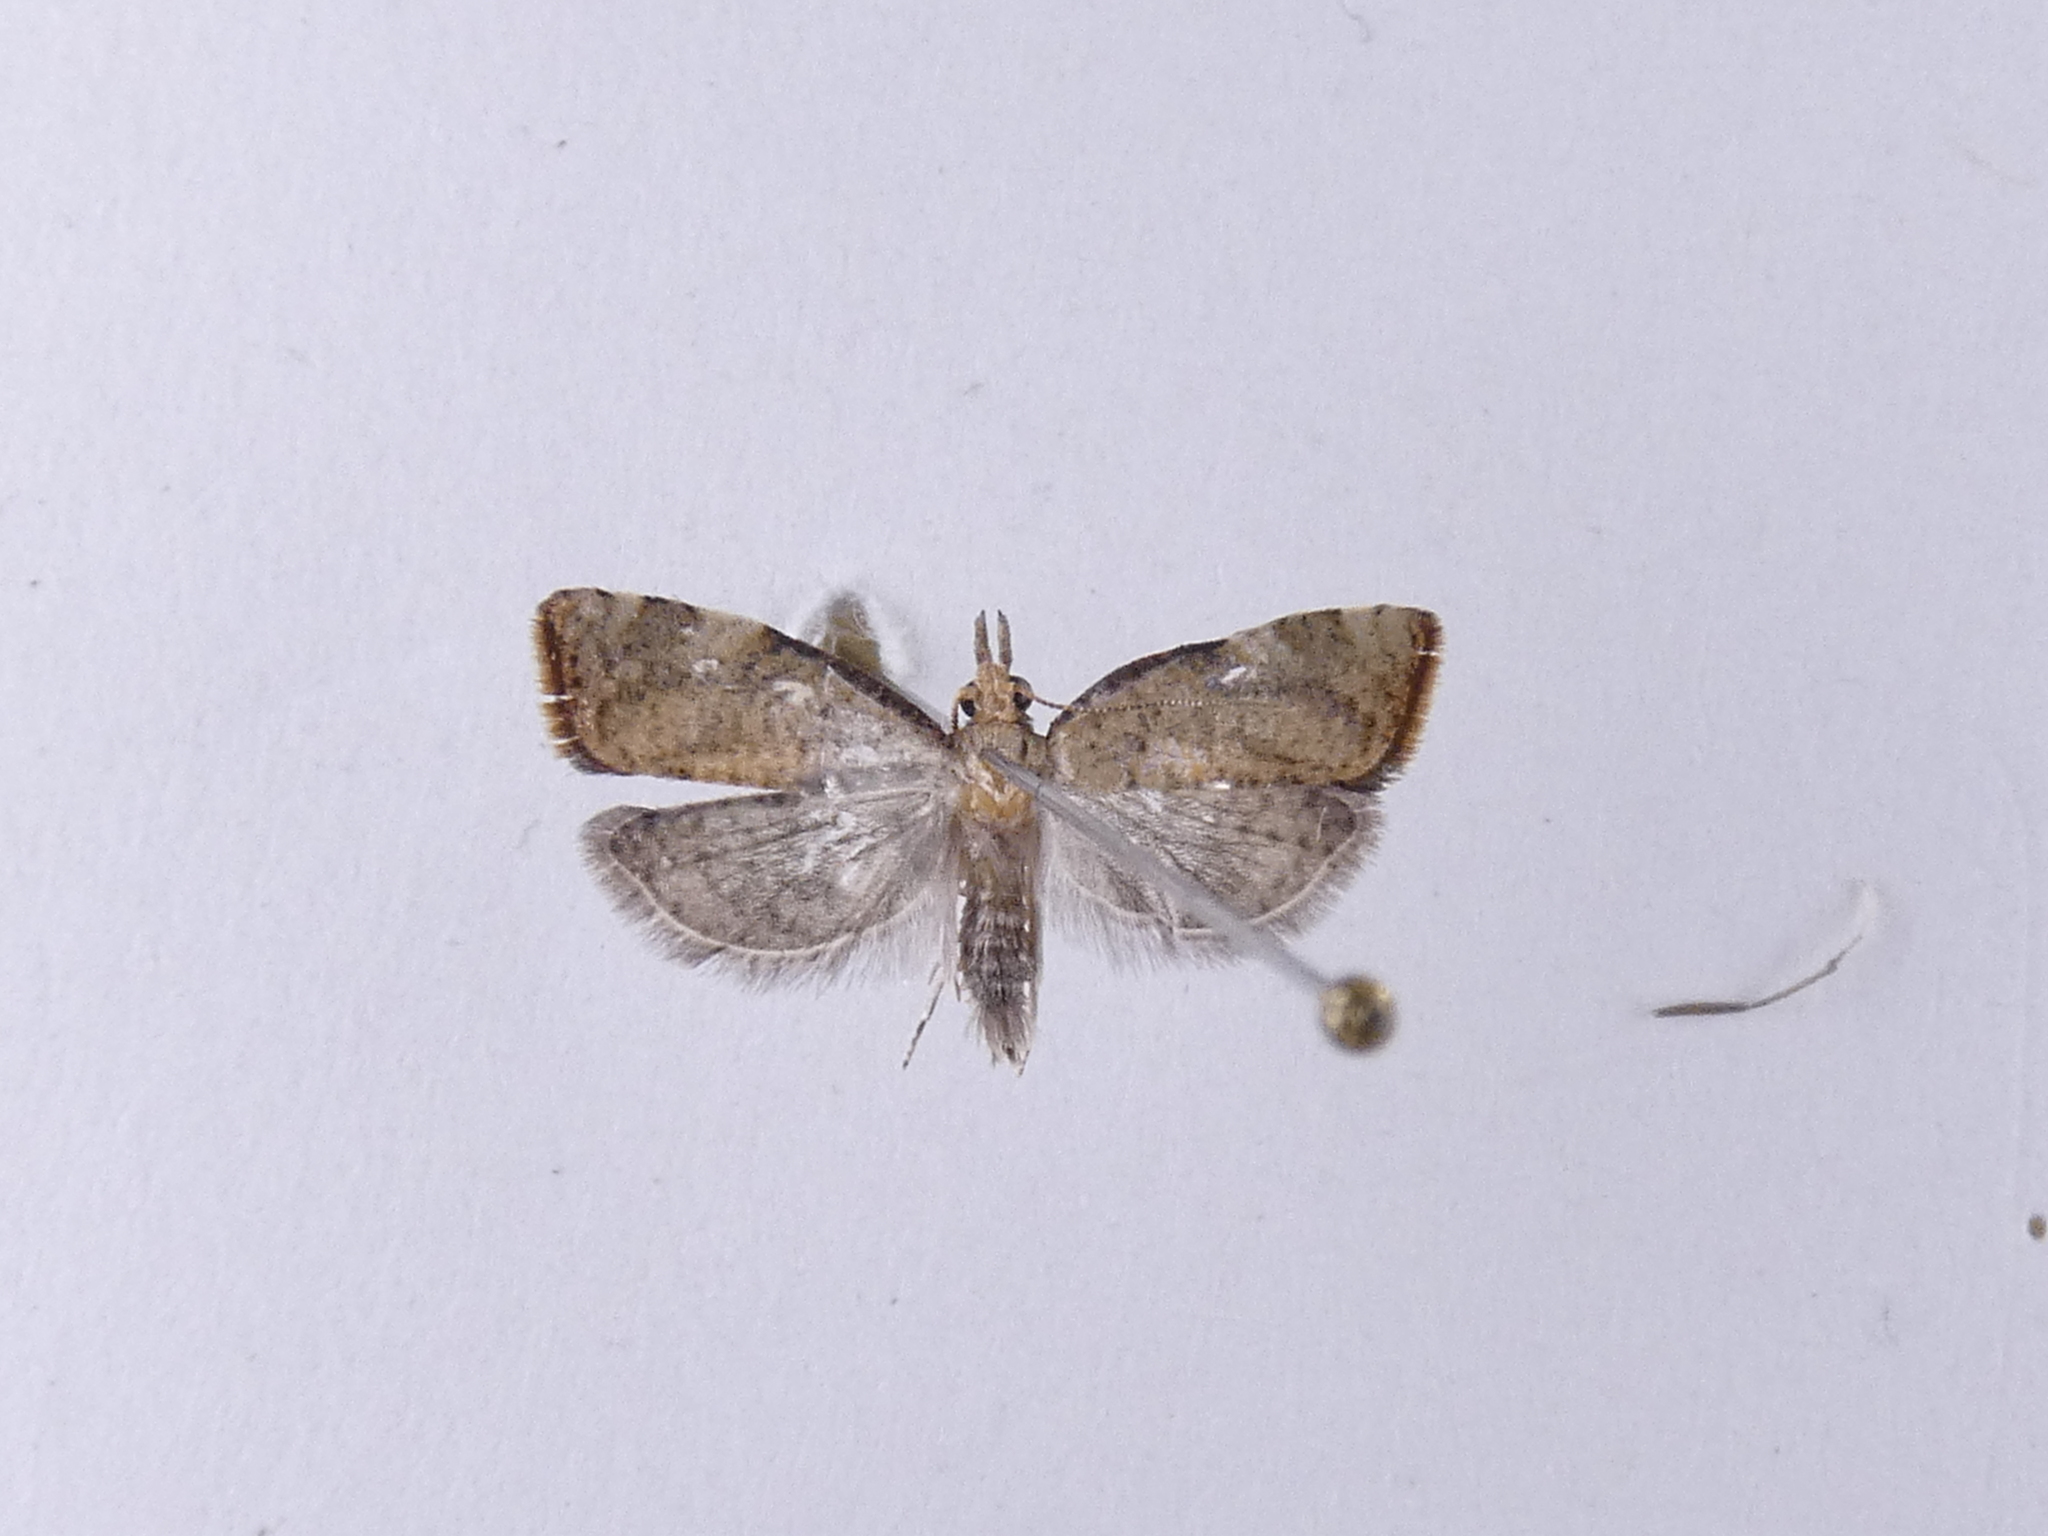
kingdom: Animalia
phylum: Arthropoda
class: Insecta
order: Lepidoptera
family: Tortricidae
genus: Catamacta
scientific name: Catamacta gavisana
